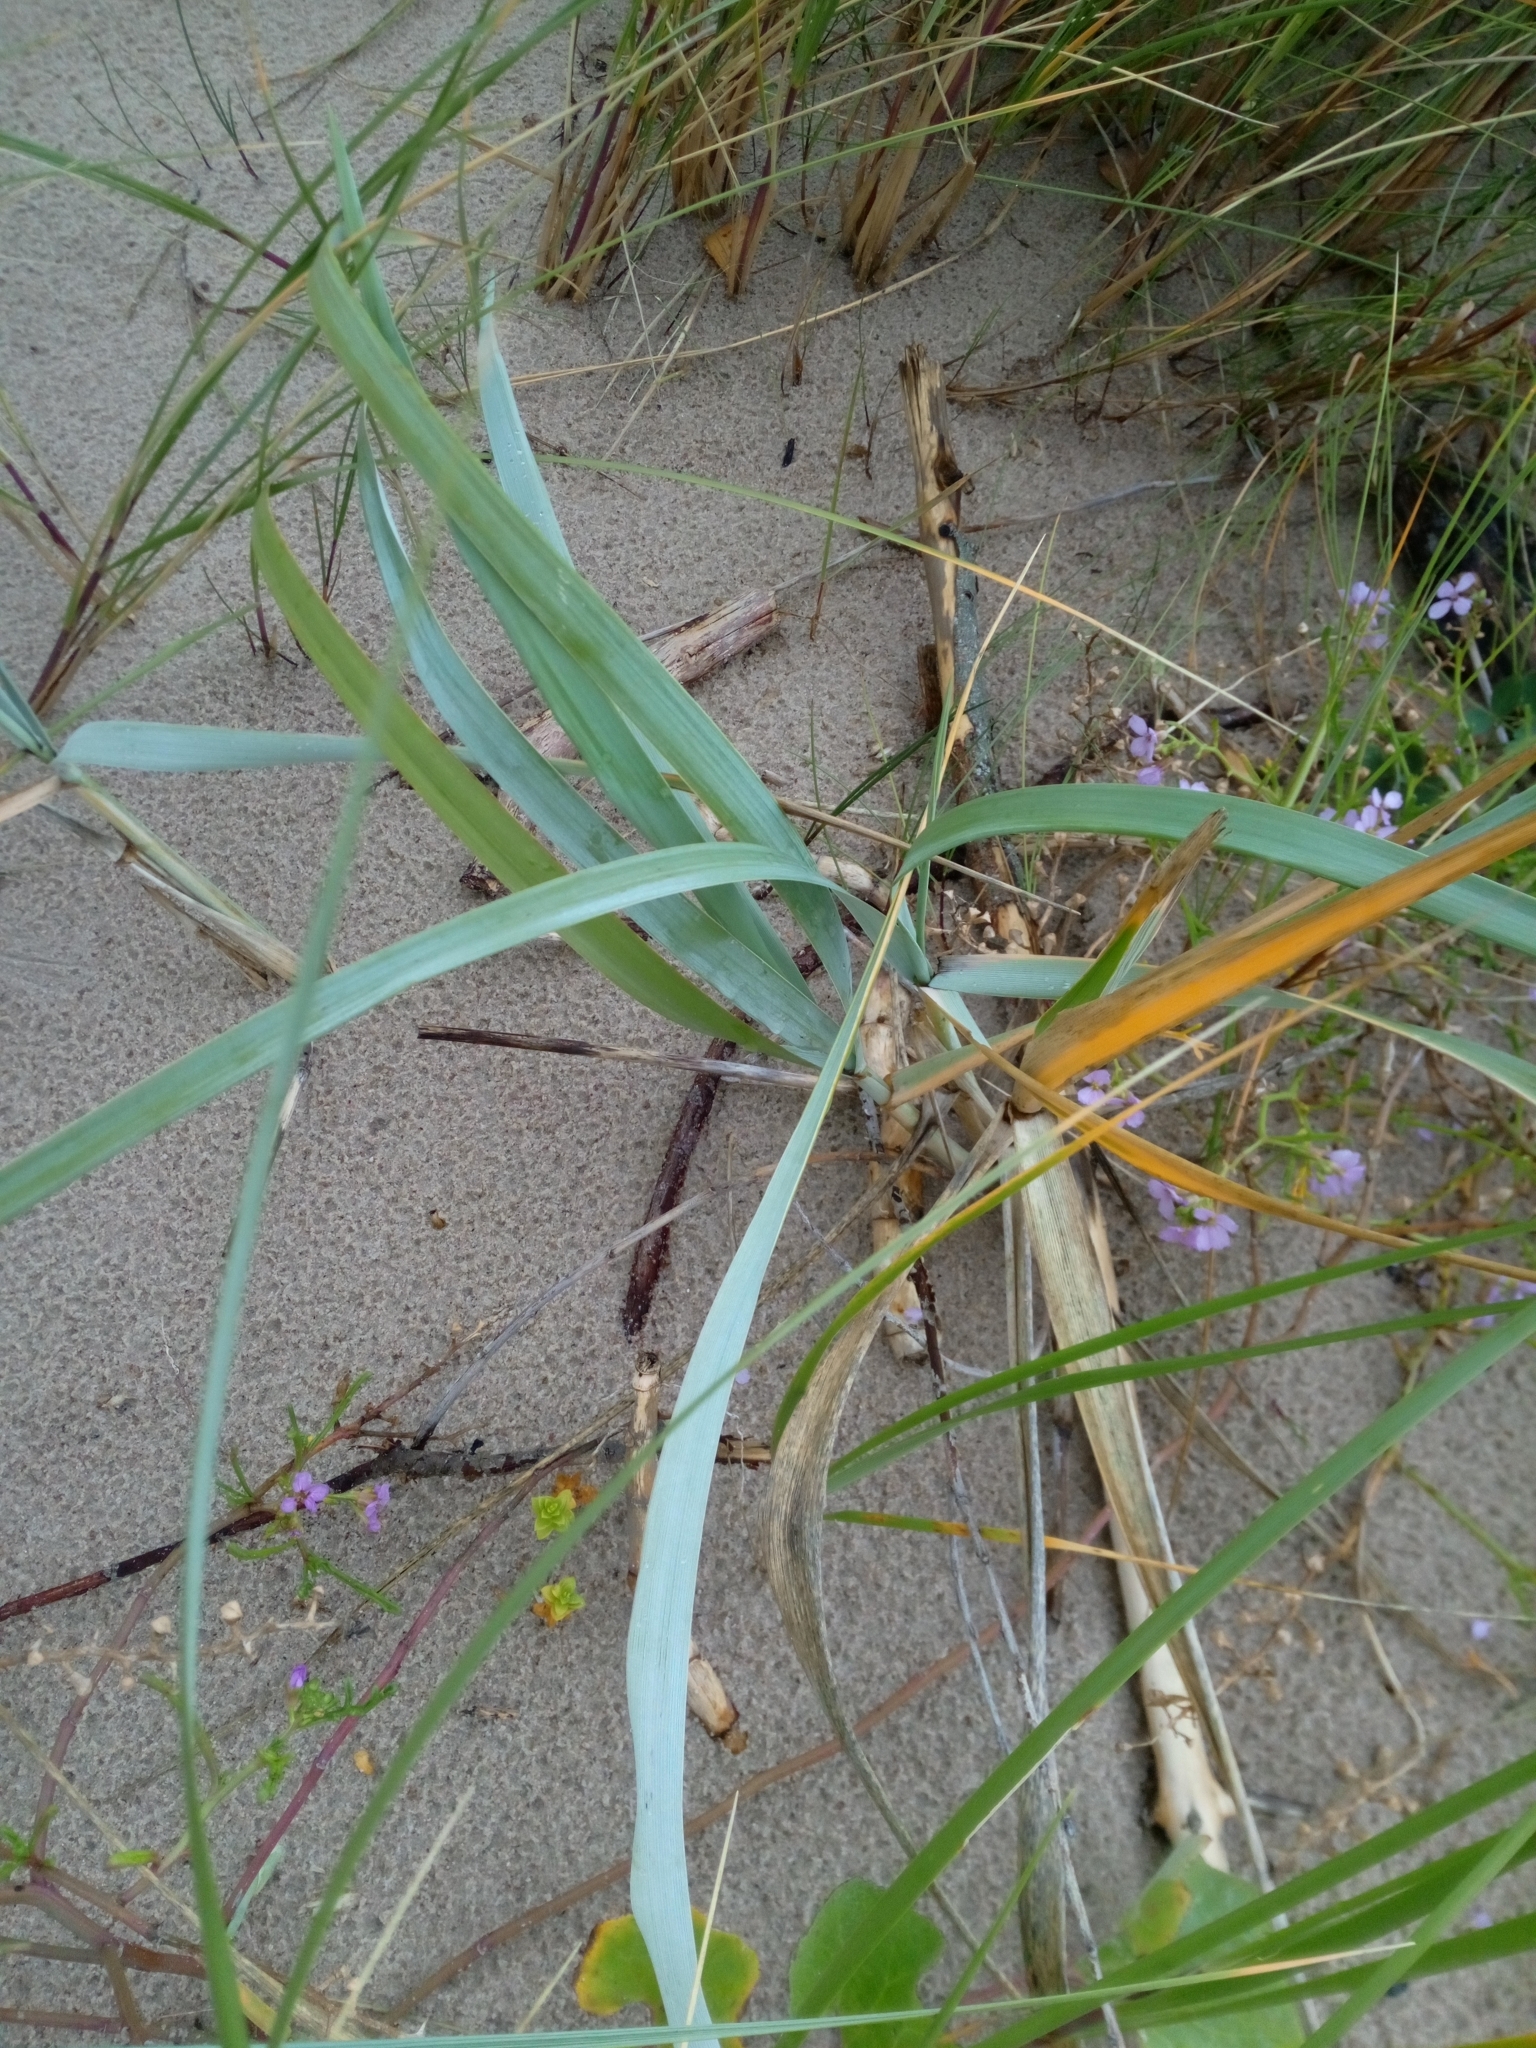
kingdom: Plantae
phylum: Tracheophyta
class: Liliopsida
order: Poales
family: Poaceae
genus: Leymus
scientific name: Leymus arenarius
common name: Lyme-grass
